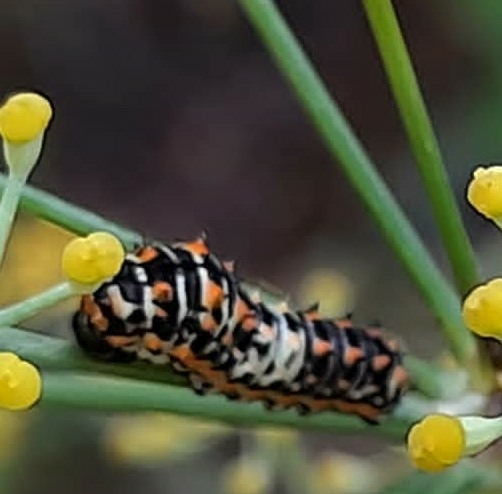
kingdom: Animalia
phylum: Arthropoda
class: Insecta
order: Lepidoptera
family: Papilionidae
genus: Papilio
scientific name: Papilio machaon
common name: Swallowtail
